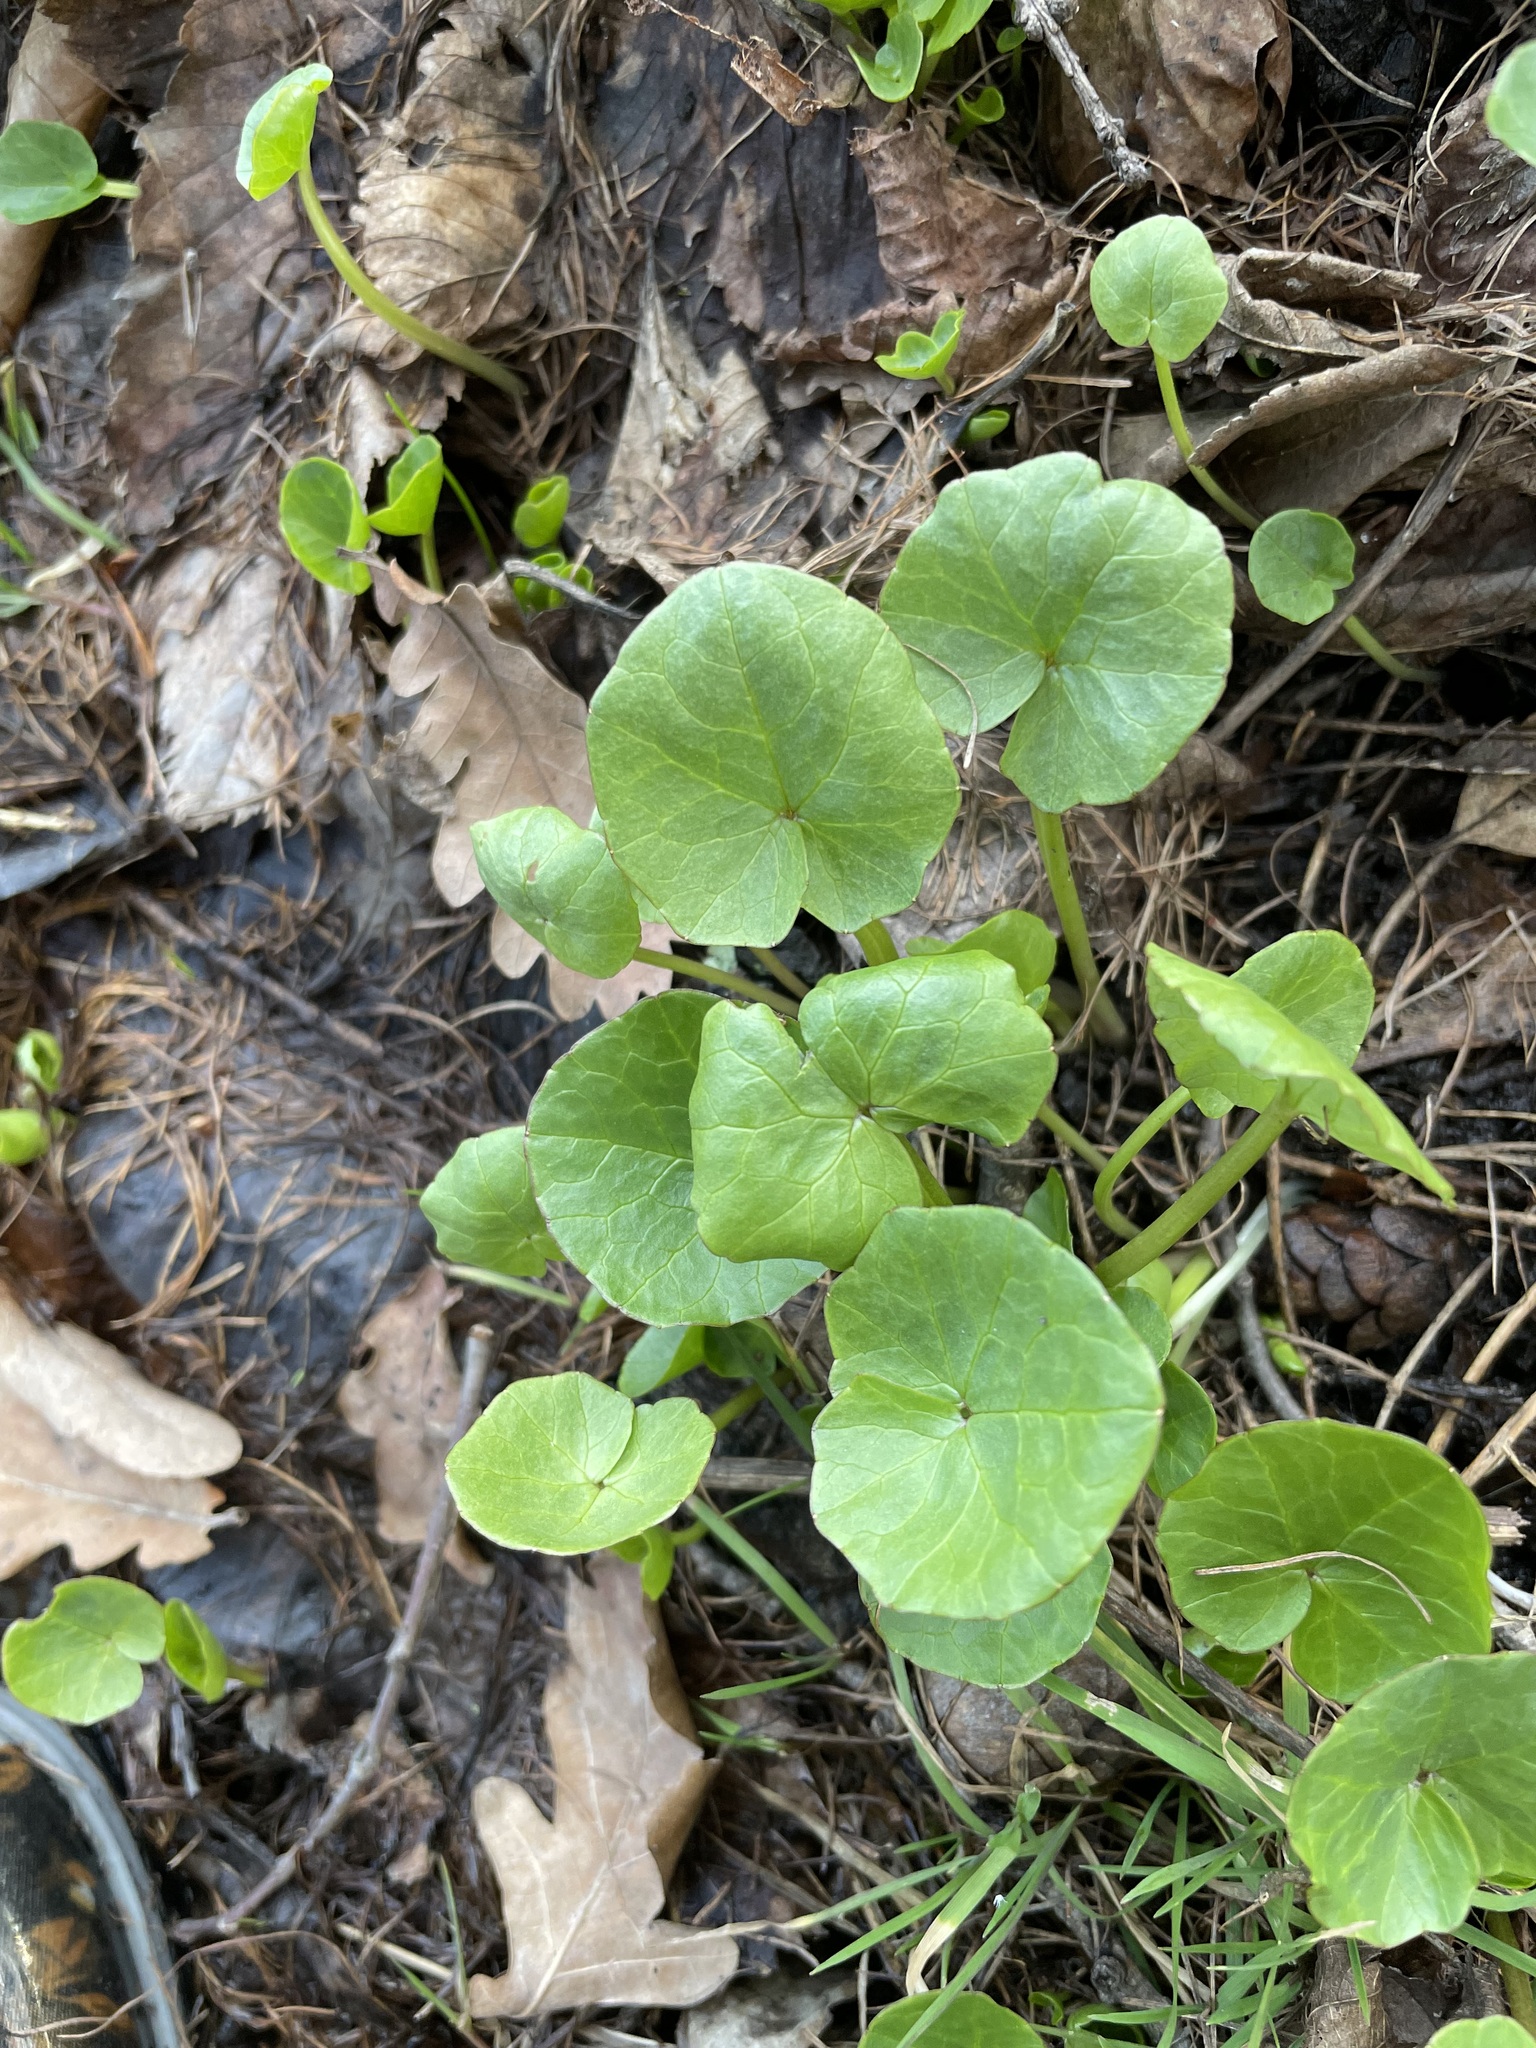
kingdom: Plantae
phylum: Tracheophyta
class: Magnoliopsida
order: Ranunculales
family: Ranunculaceae
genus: Ficaria
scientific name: Ficaria verna
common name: Lesser celandine
